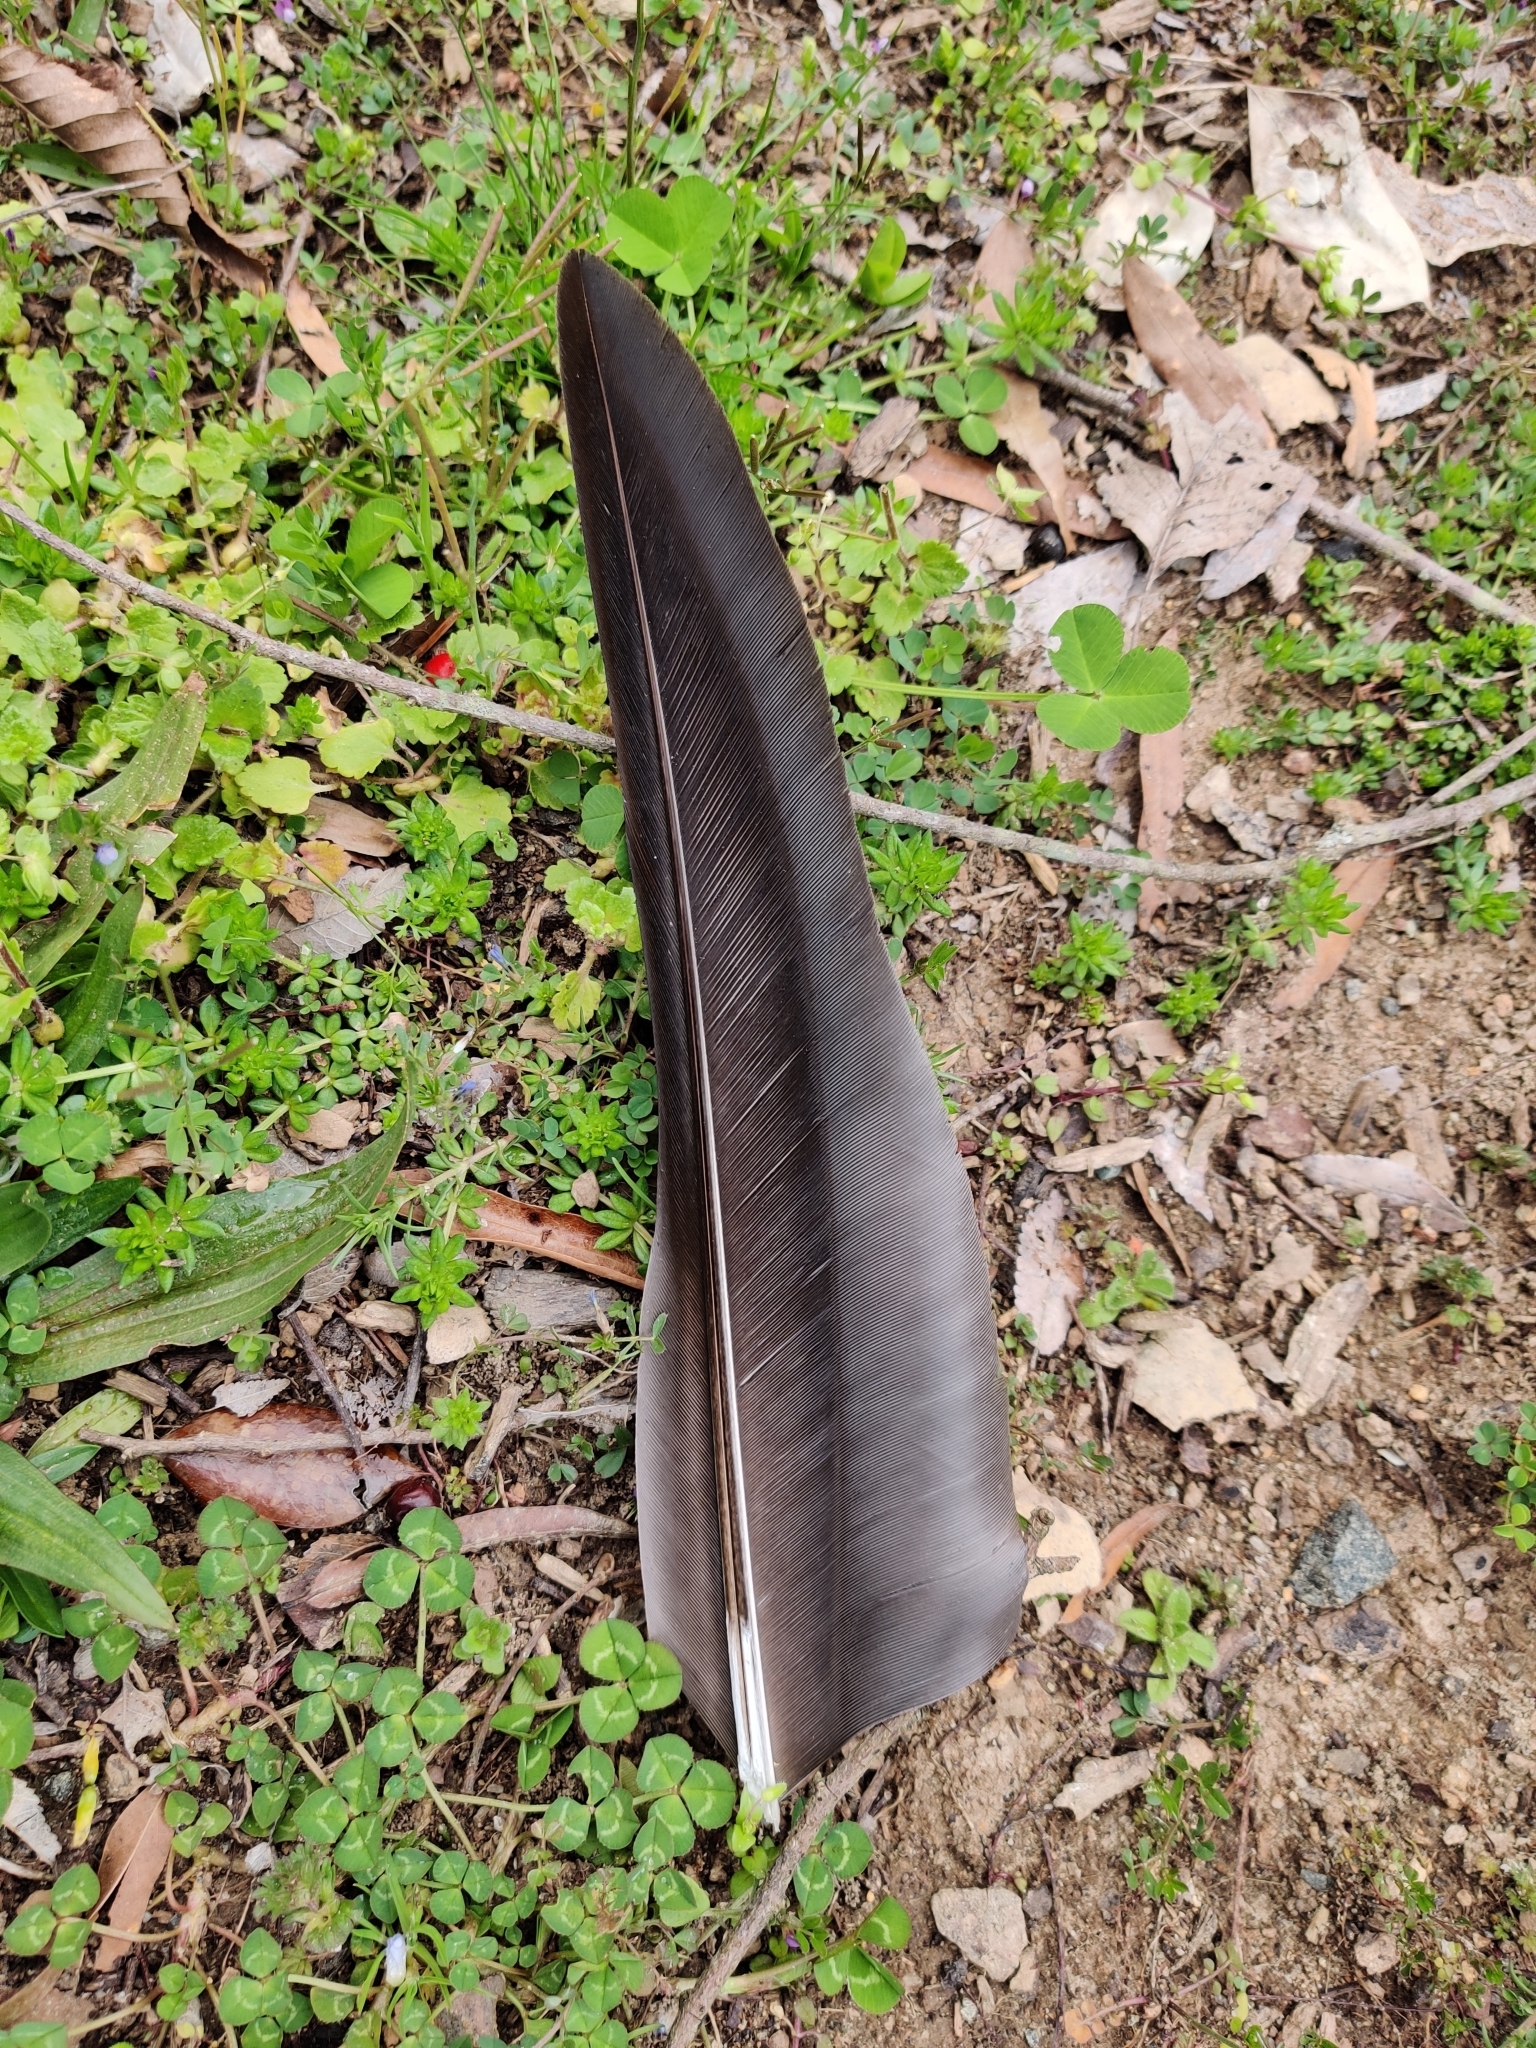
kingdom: Animalia
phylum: Chordata
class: Aves
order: Anseriformes
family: Anatidae
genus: Branta
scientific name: Branta canadensis
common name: Canada goose
